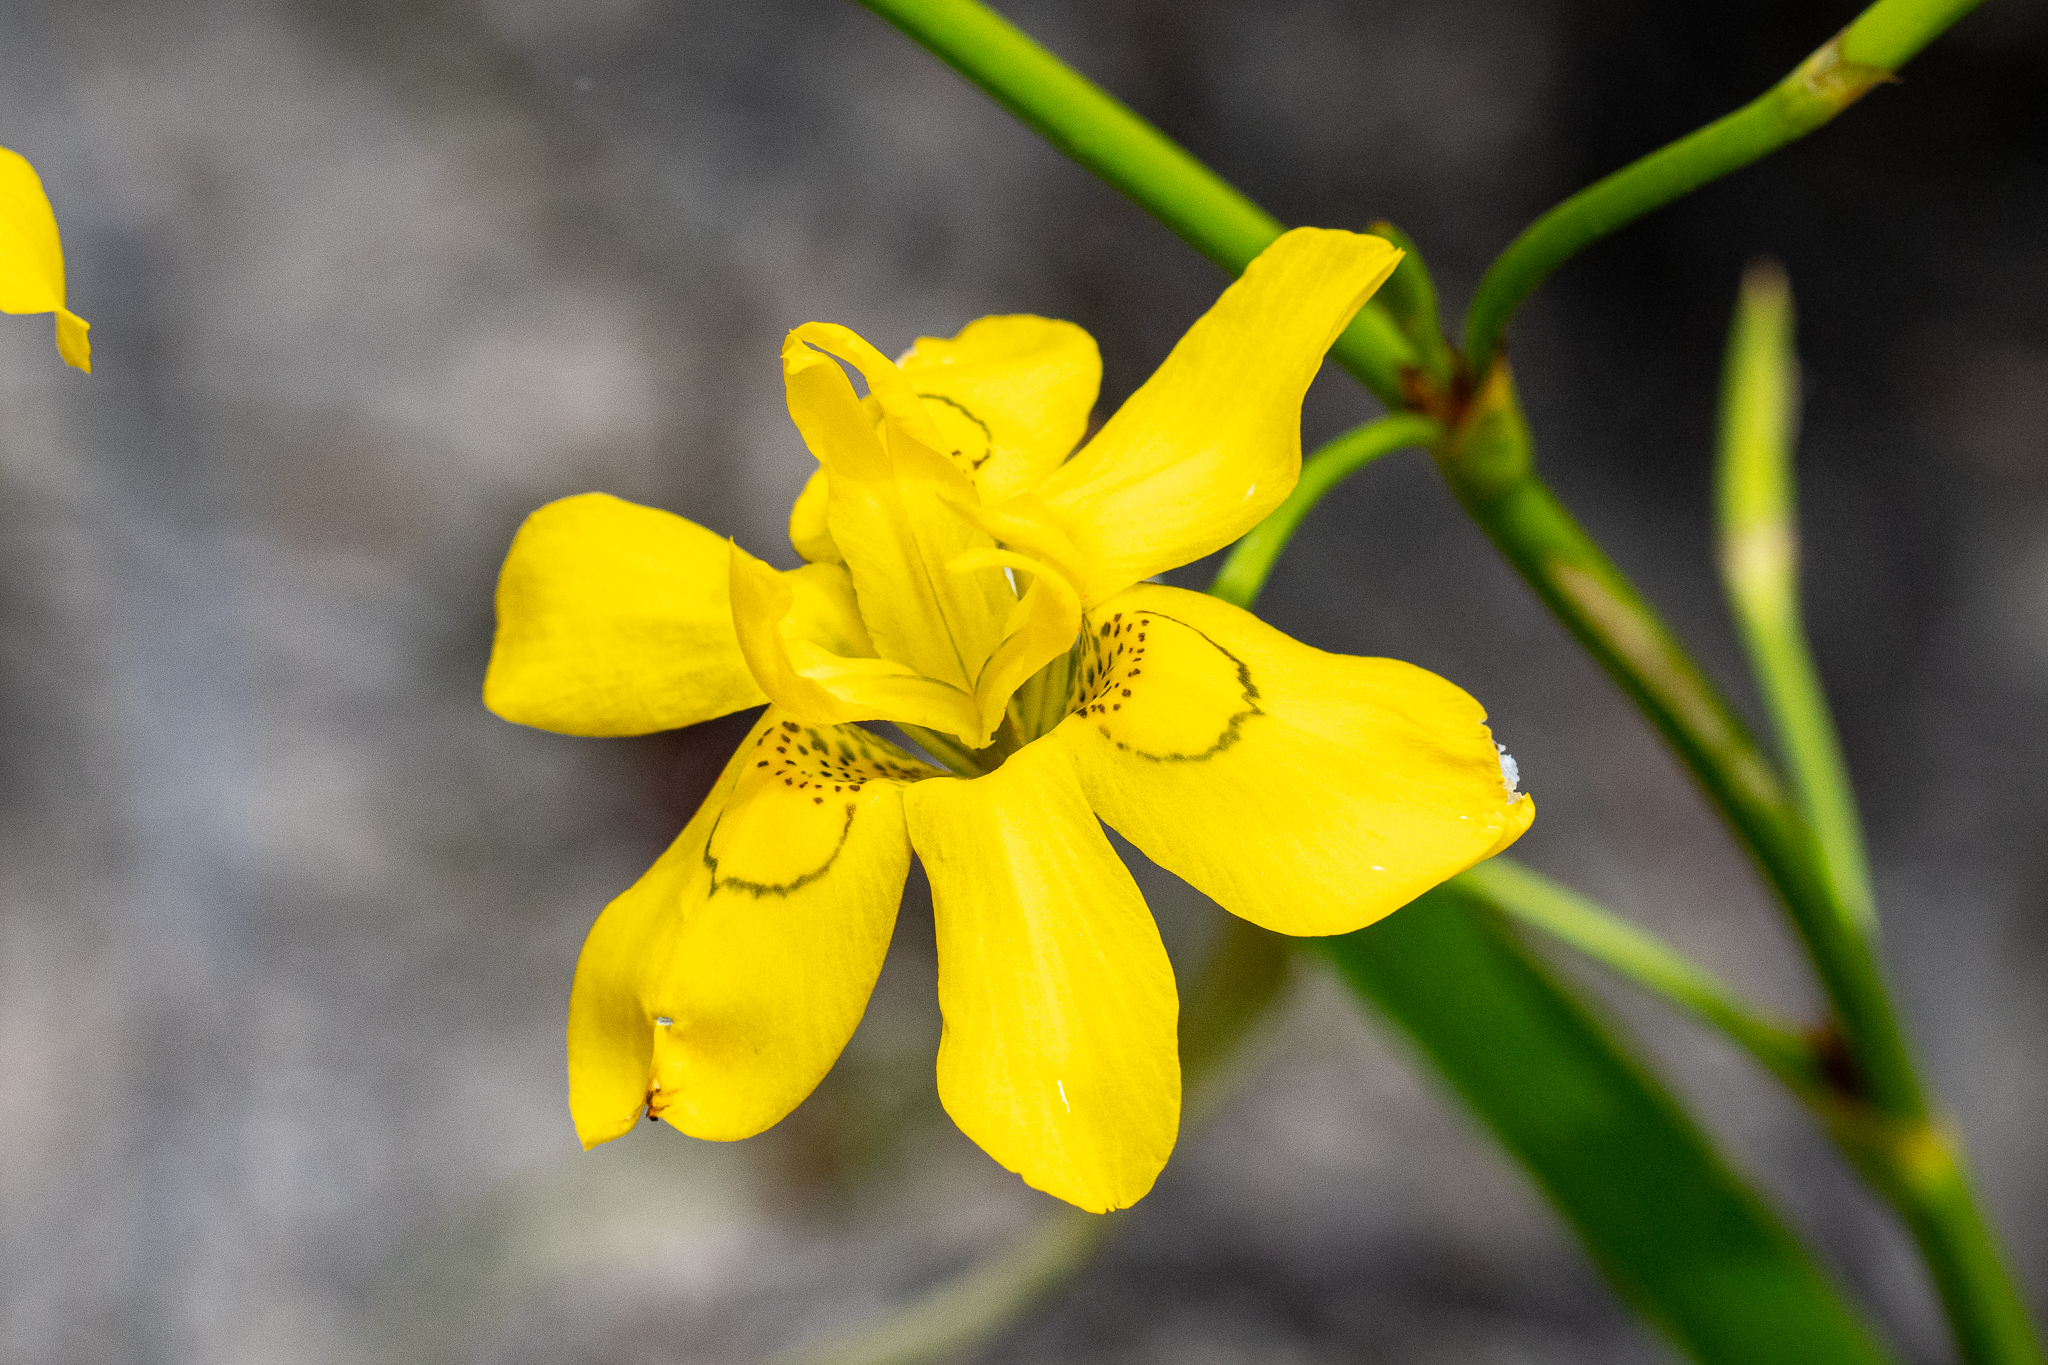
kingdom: Plantae
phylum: Tracheophyta
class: Liliopsida
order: Asparagales
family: Iridaceae
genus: Moraea
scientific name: Moraea ramosissima
